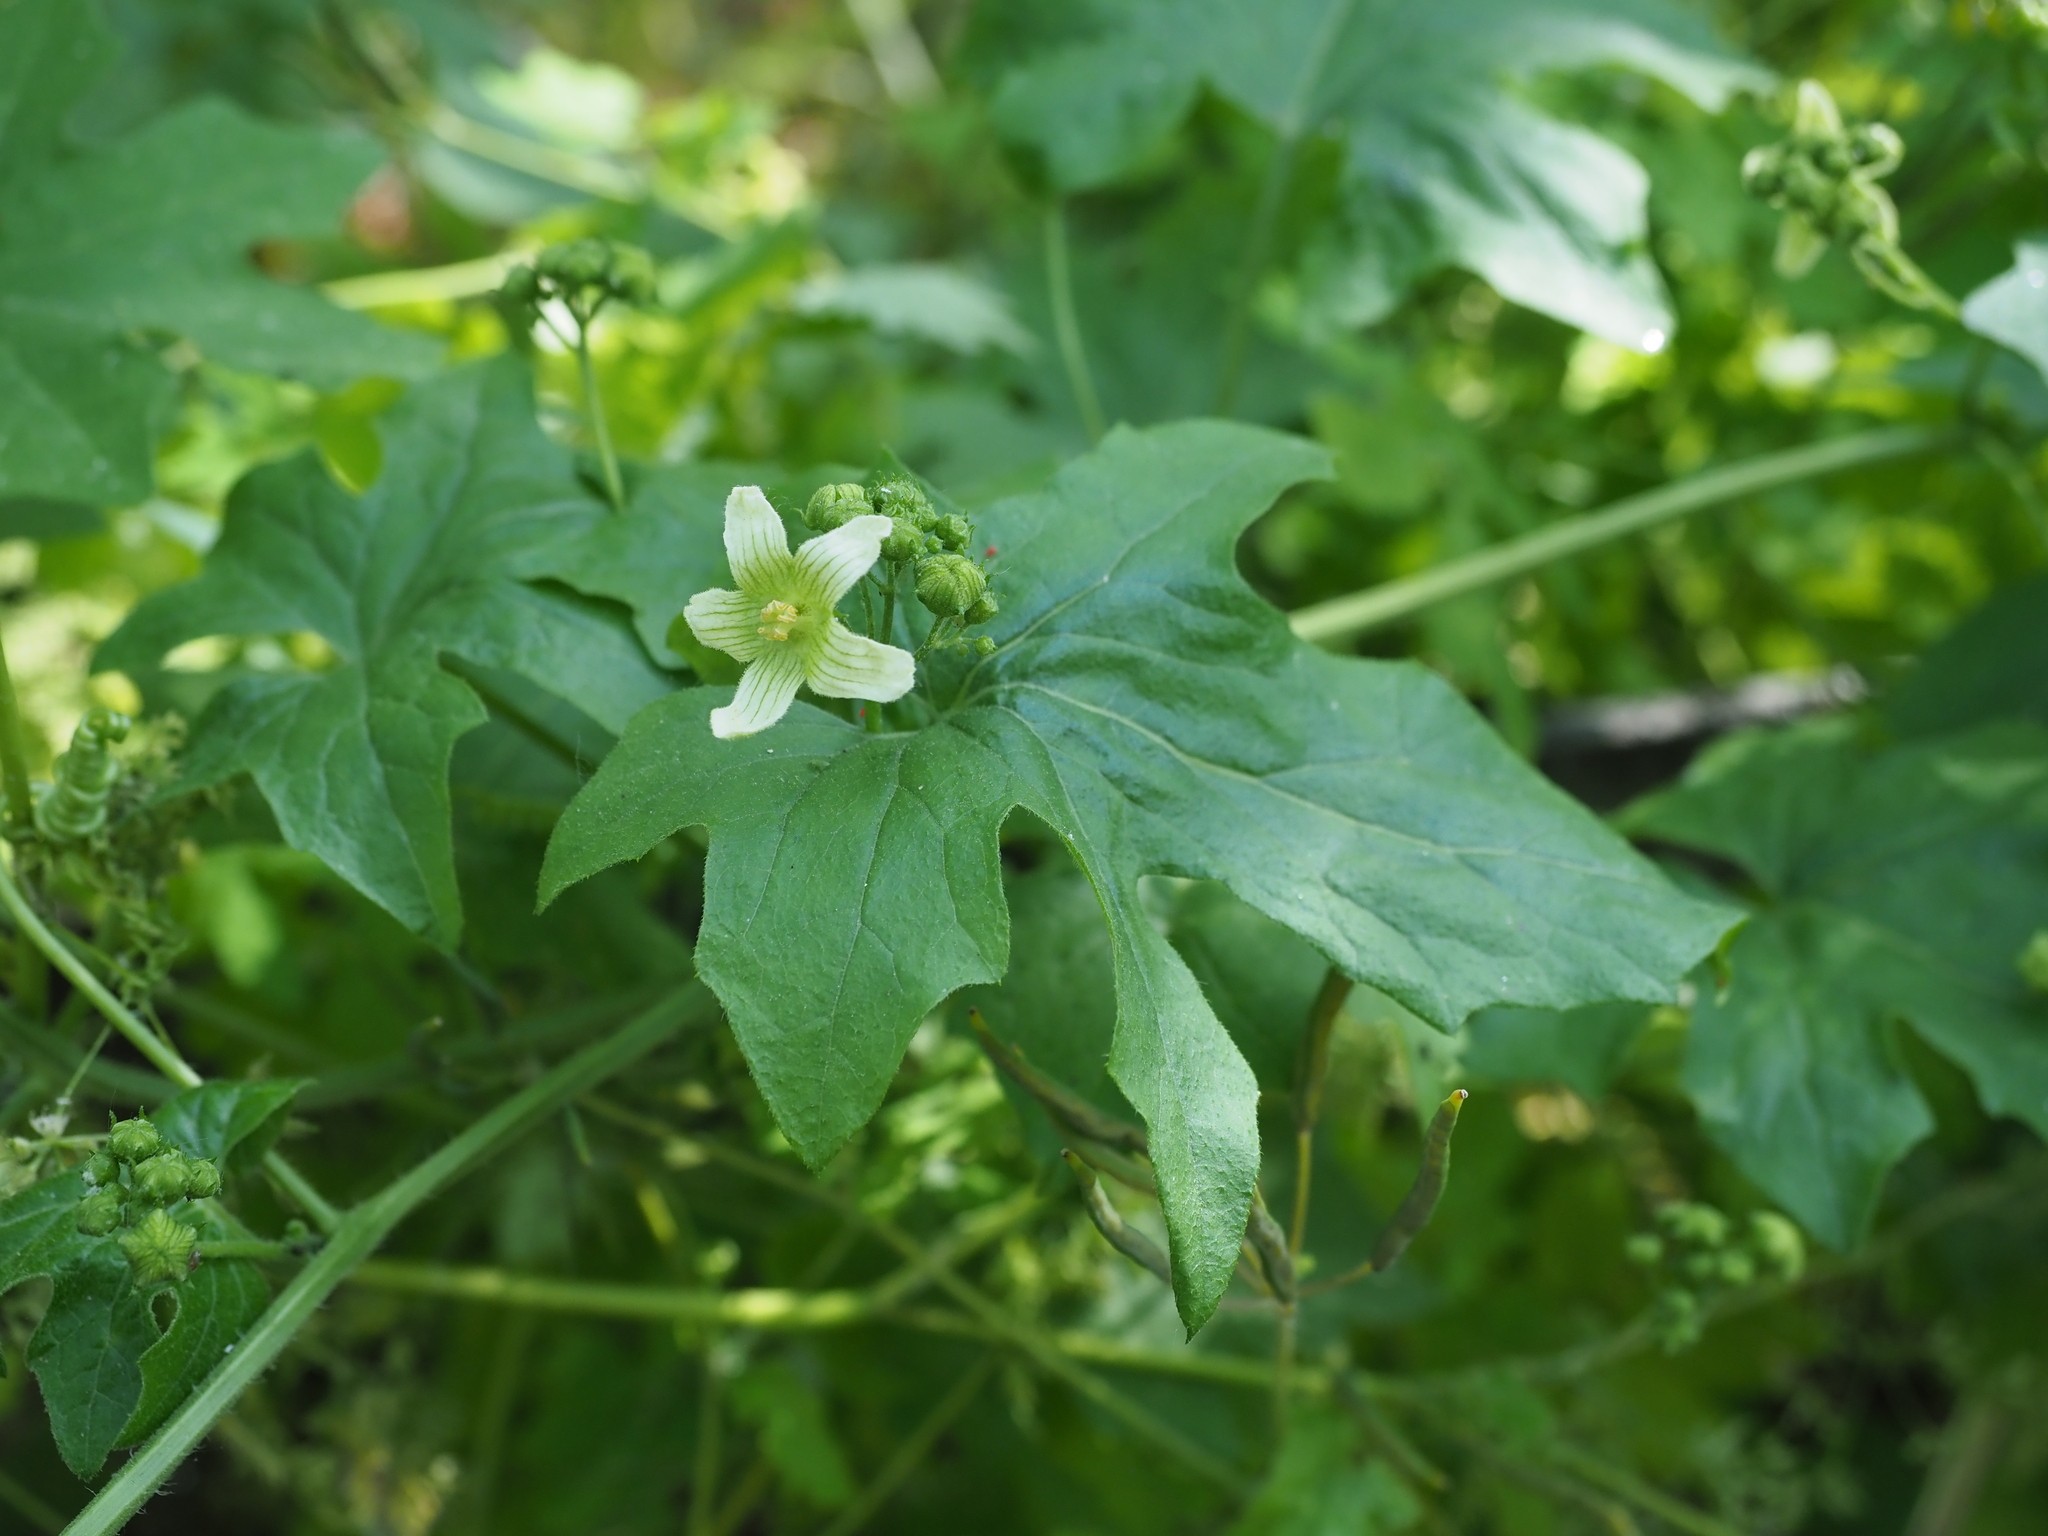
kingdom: Plantae
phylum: Tracheophyta
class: Magnoliopsida
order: Cucurbitales
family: Cucurbitaceae
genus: Bryonia
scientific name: Bryonia cretica
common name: Cretan bryony
